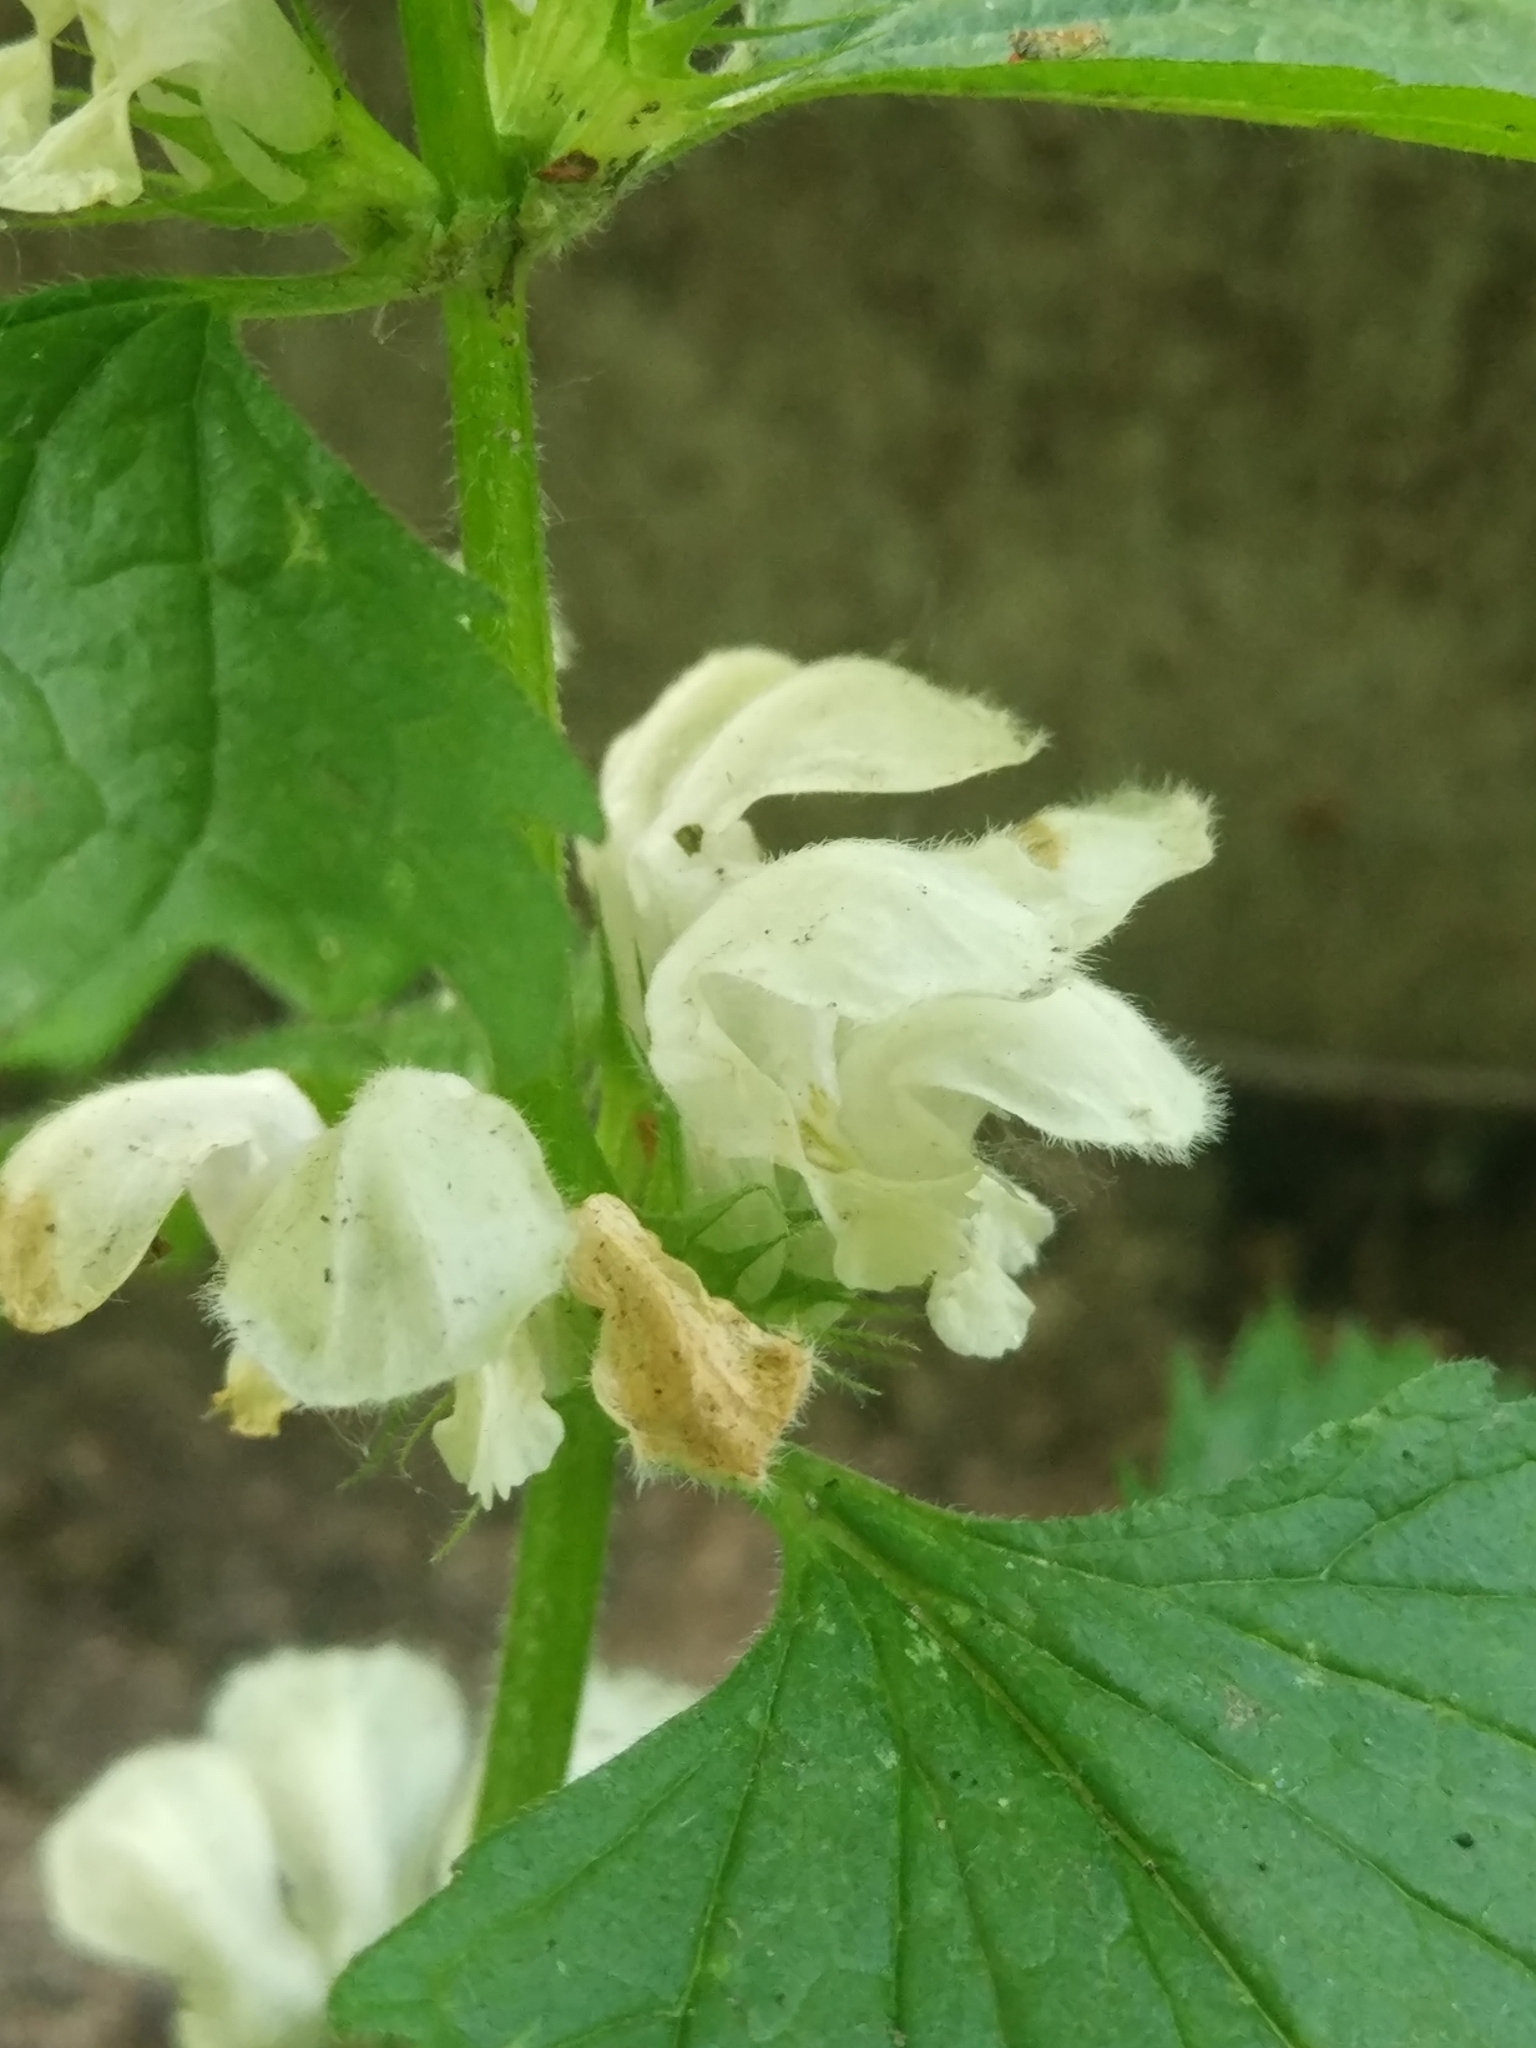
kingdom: Plantae
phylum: Tracheophyta
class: Magnoliopsida
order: Lamiales
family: Lamiaceae
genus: Lamium
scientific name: Lamium album
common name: White dead-nettle
